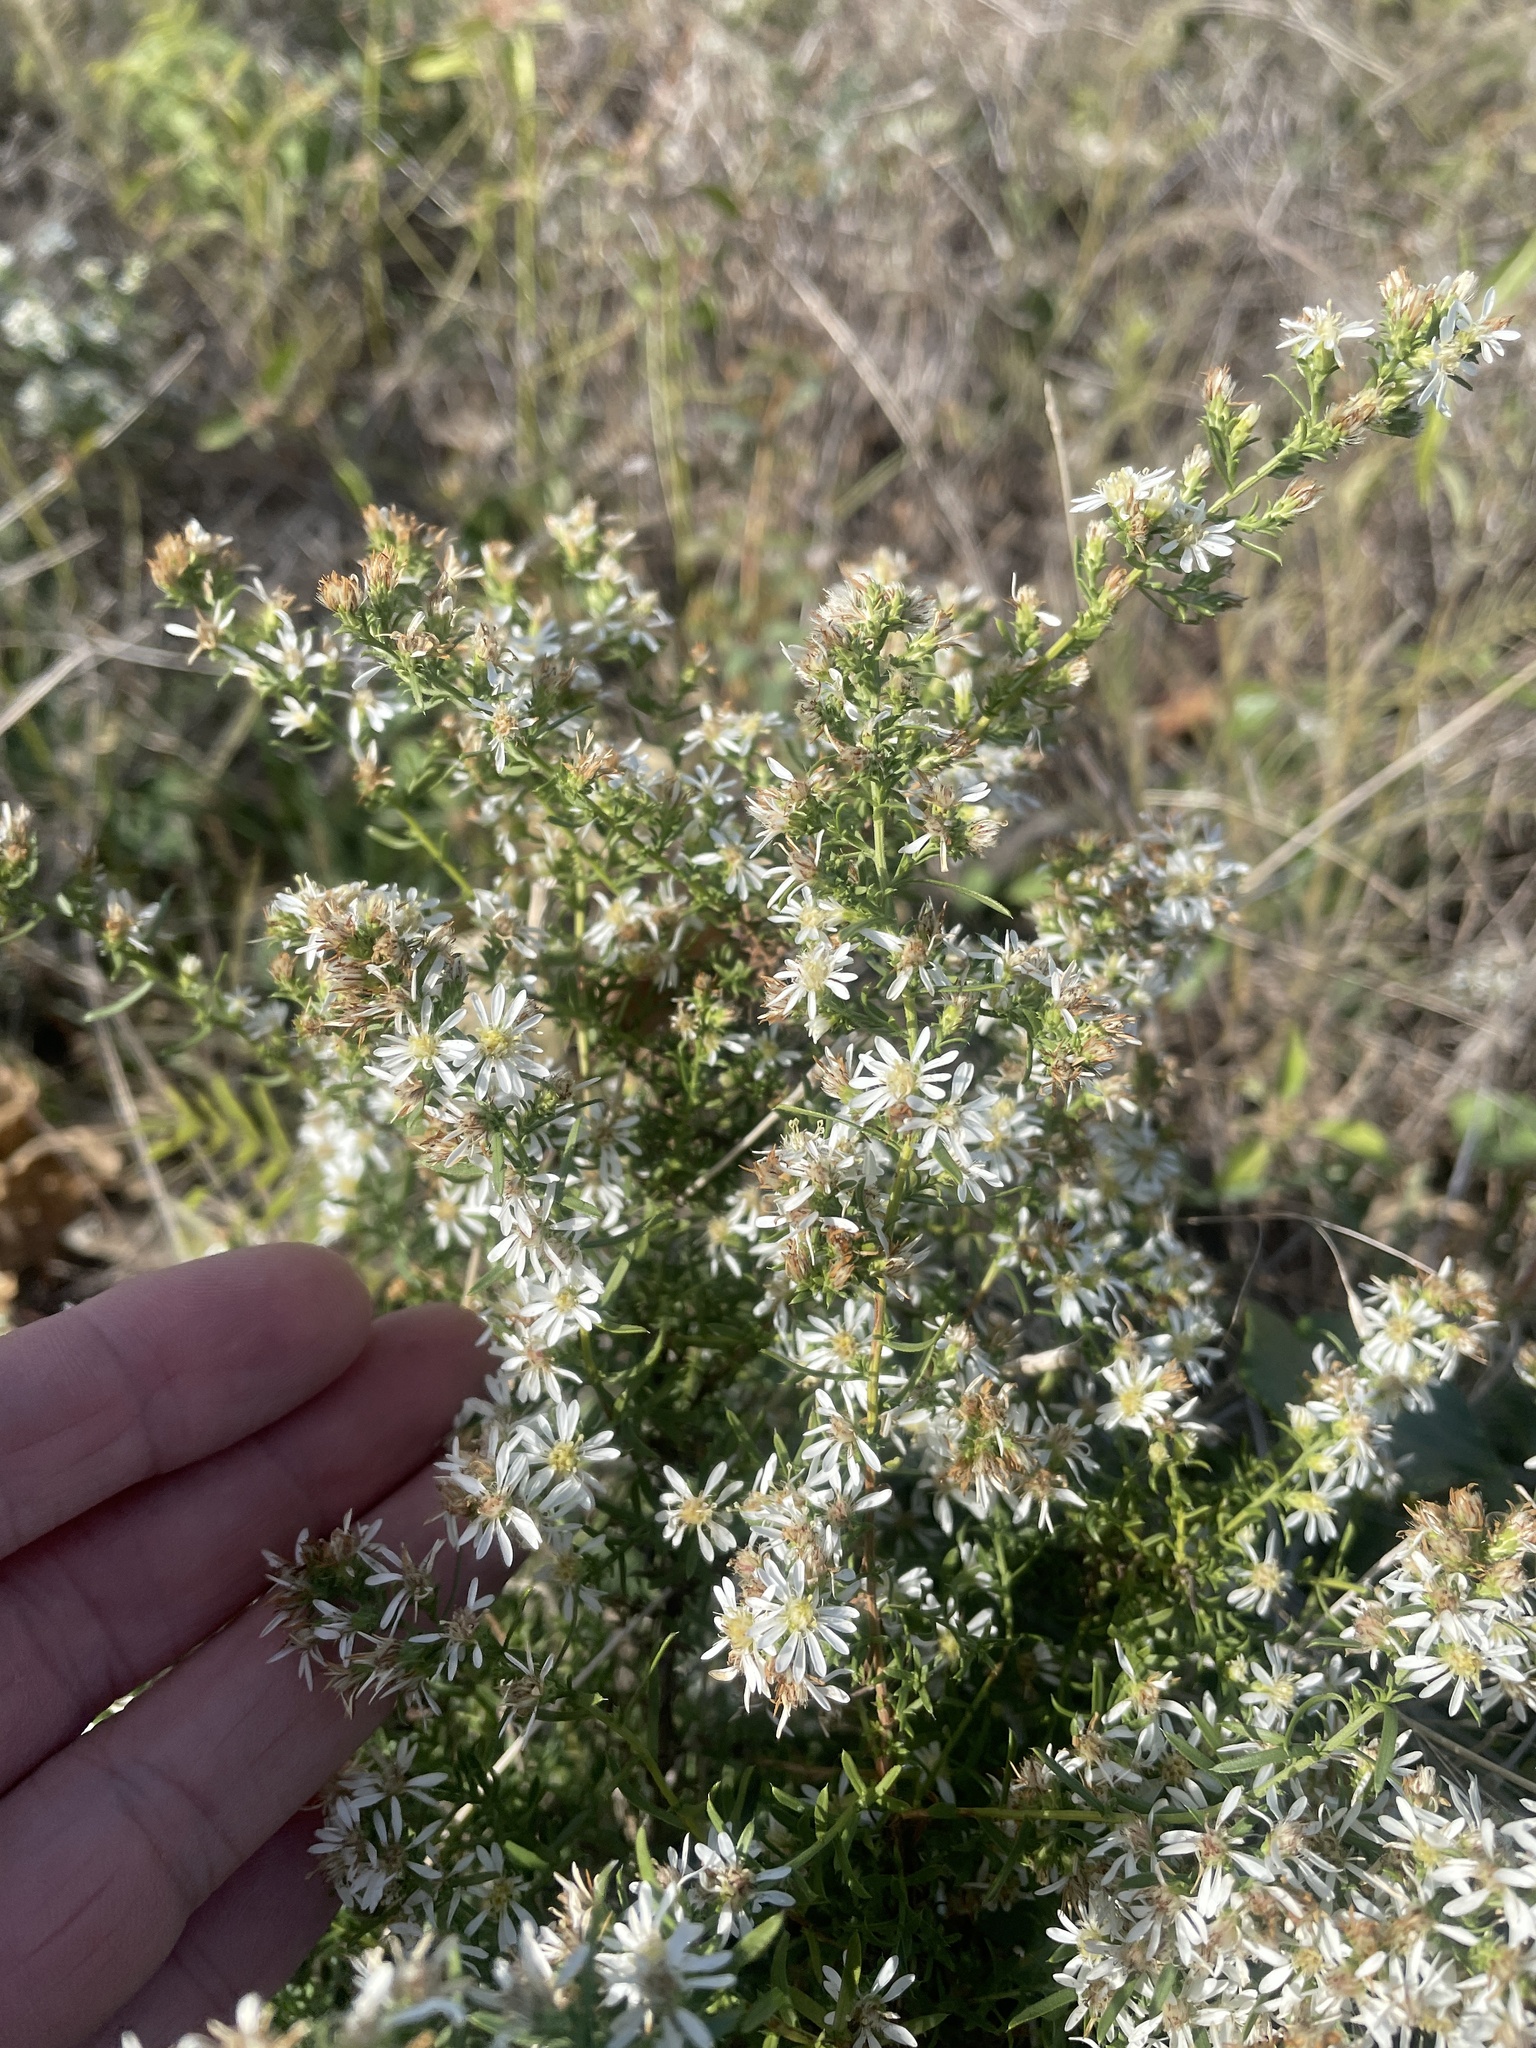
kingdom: Plantae
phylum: Tracheophyta
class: Magnoliopsida
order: Asterales
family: Asteraceae
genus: Symphyotrichum
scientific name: Symphyotrichum ericoides
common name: Heath aster
